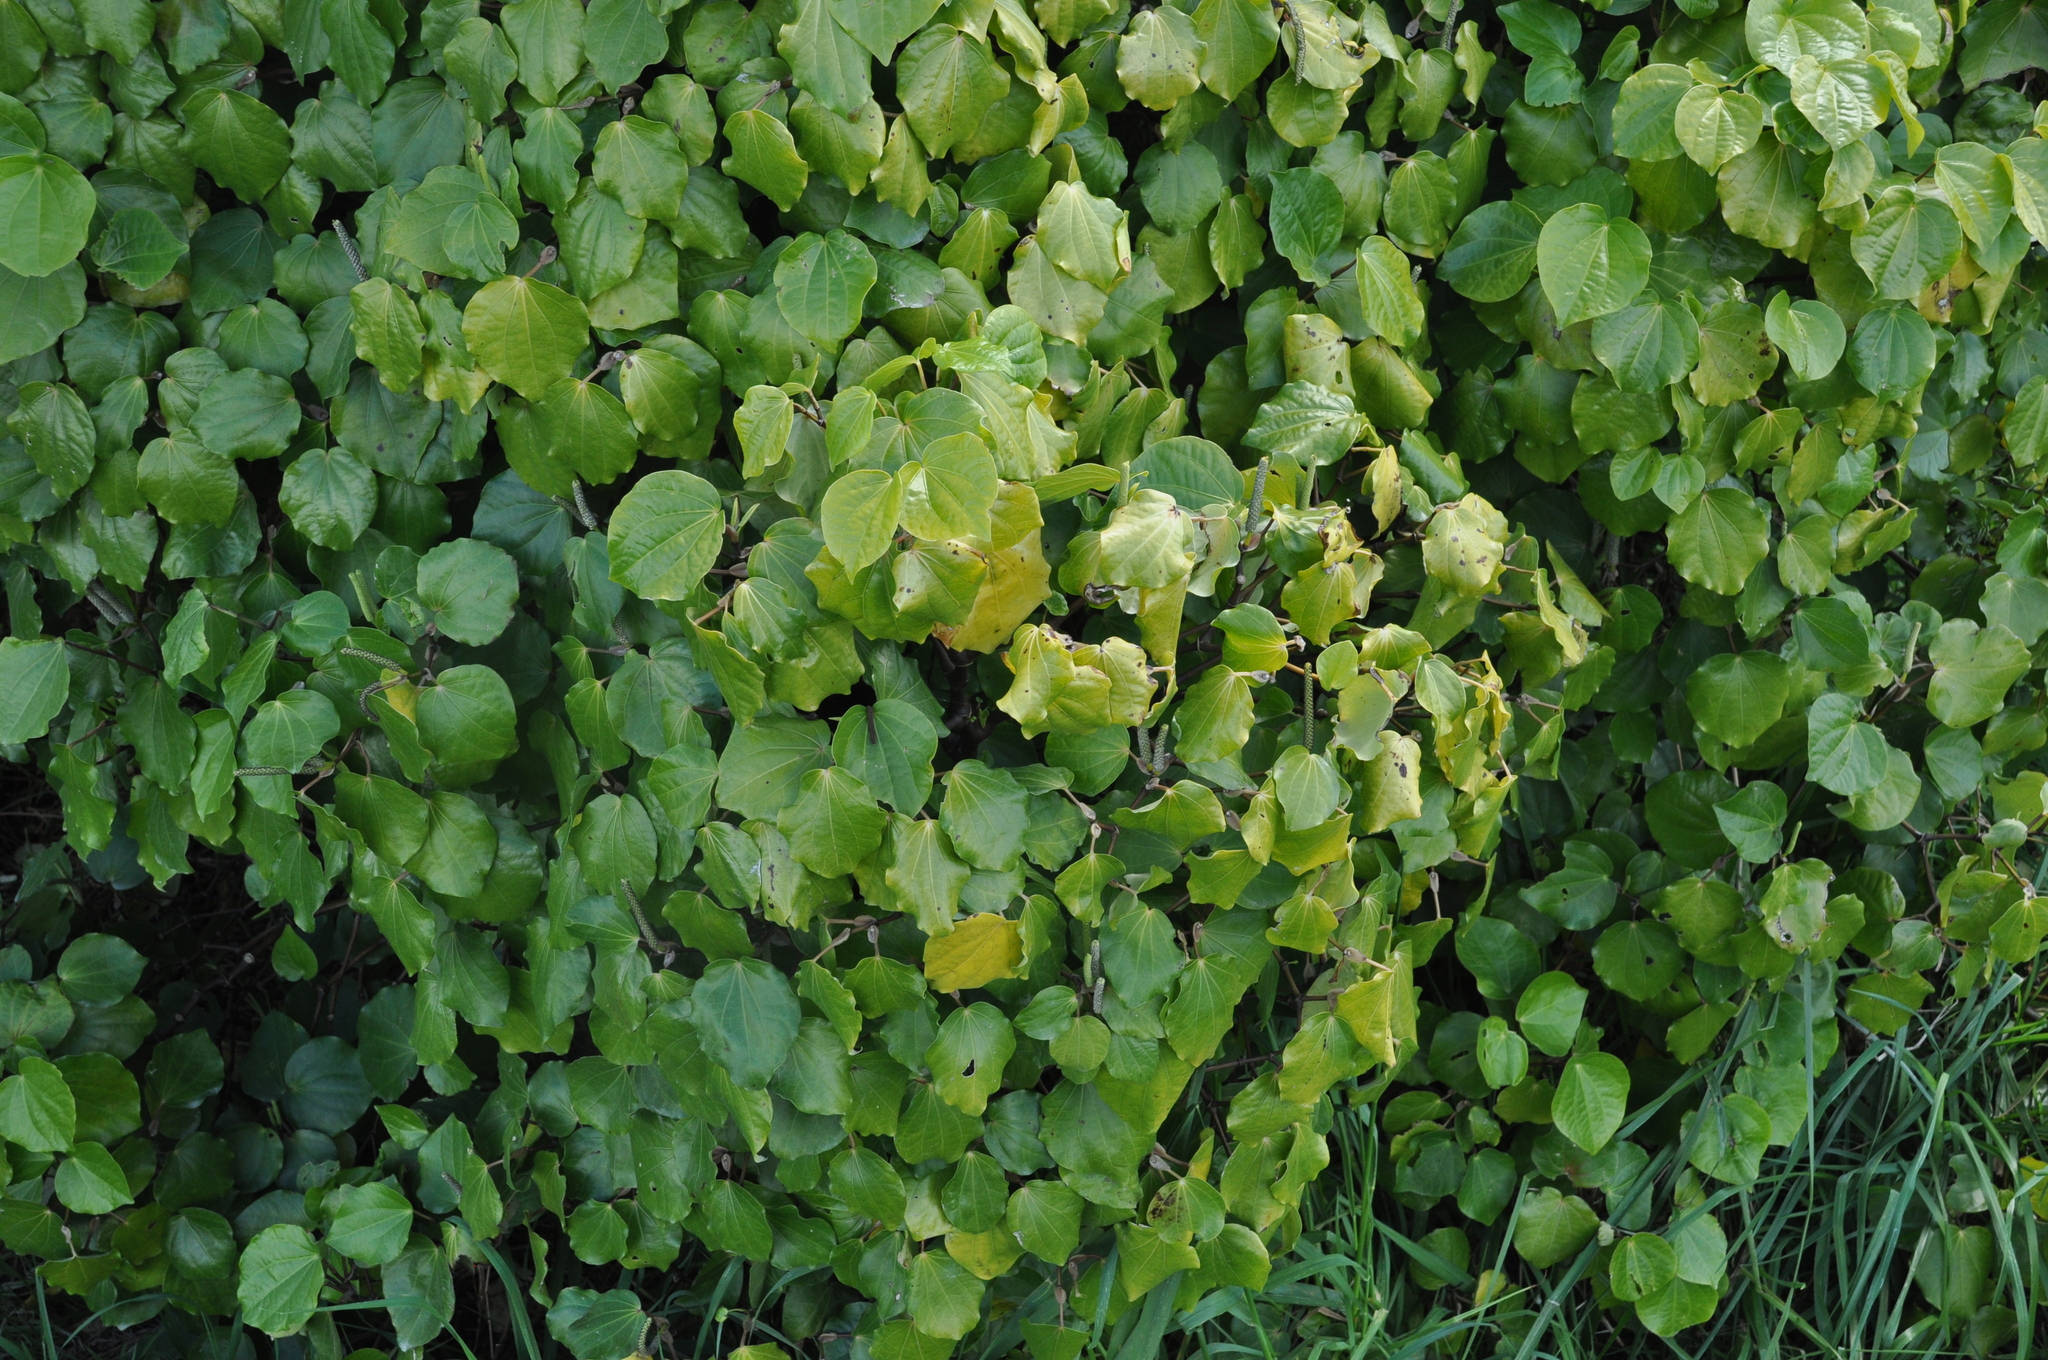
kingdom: Plantae
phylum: Tracheophyta
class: Magnoliopsida
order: Piperales
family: Piperaceae
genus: Macropiper
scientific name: Macropiper excelsum
